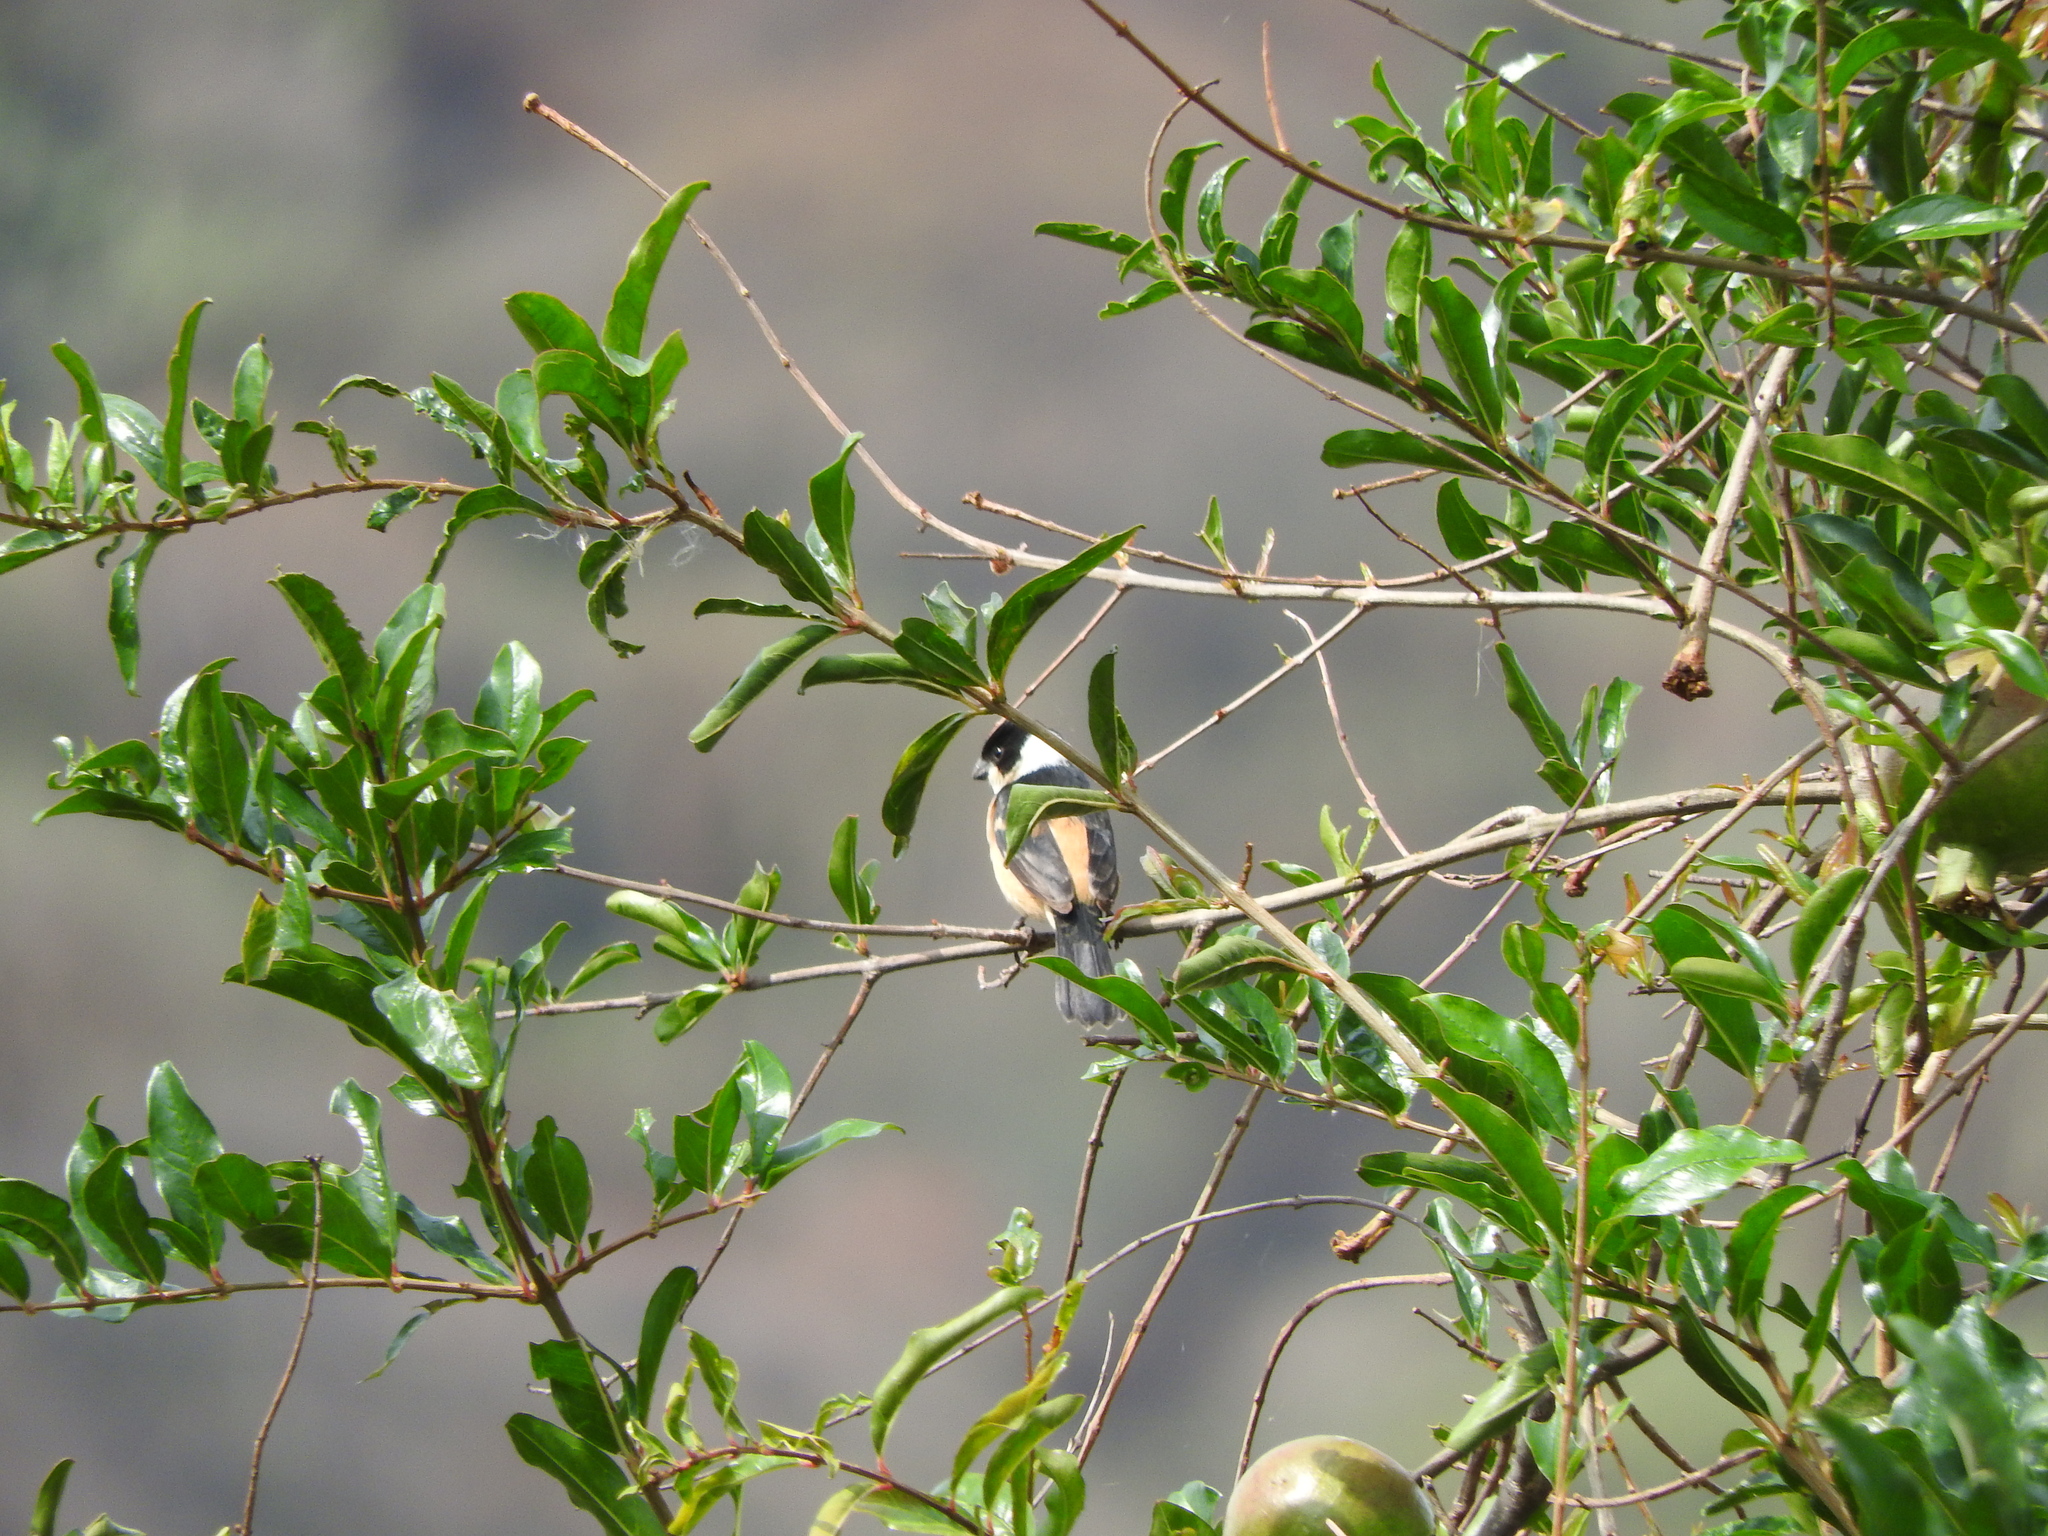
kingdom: Animalia
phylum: Chordata
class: Aves
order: Passeriformes
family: Thraupidae
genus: Sporophila
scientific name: Sporophila torqueola
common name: White-collared seedeater
